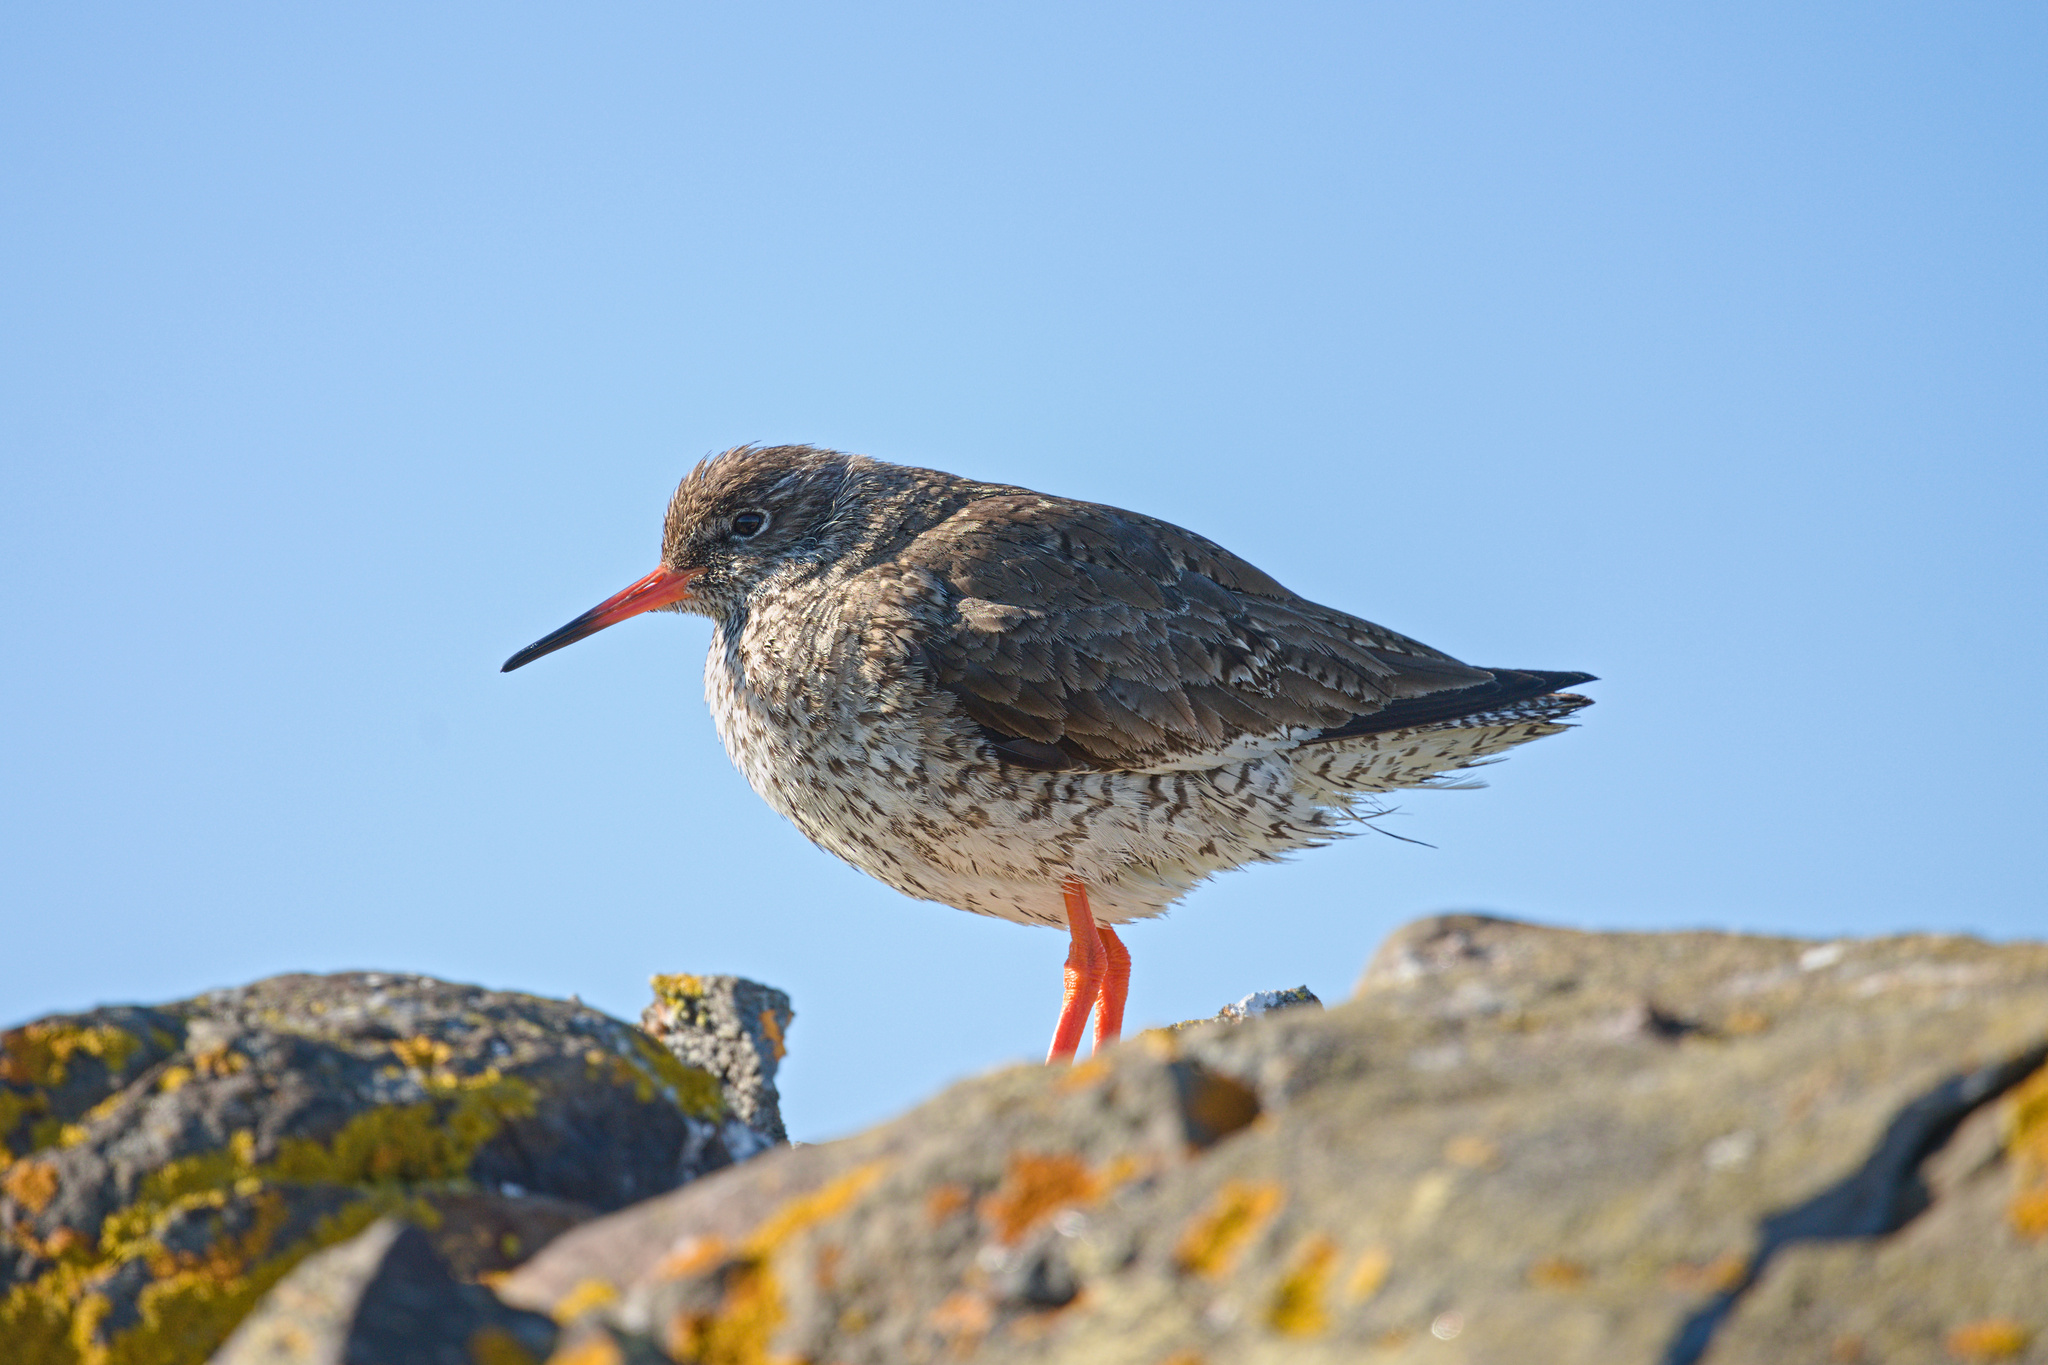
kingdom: Animalia
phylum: Chordata
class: Aves
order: Charadriiformes
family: Scolopacidae
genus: Tringa
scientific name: Tringa totanus
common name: Common redshank
